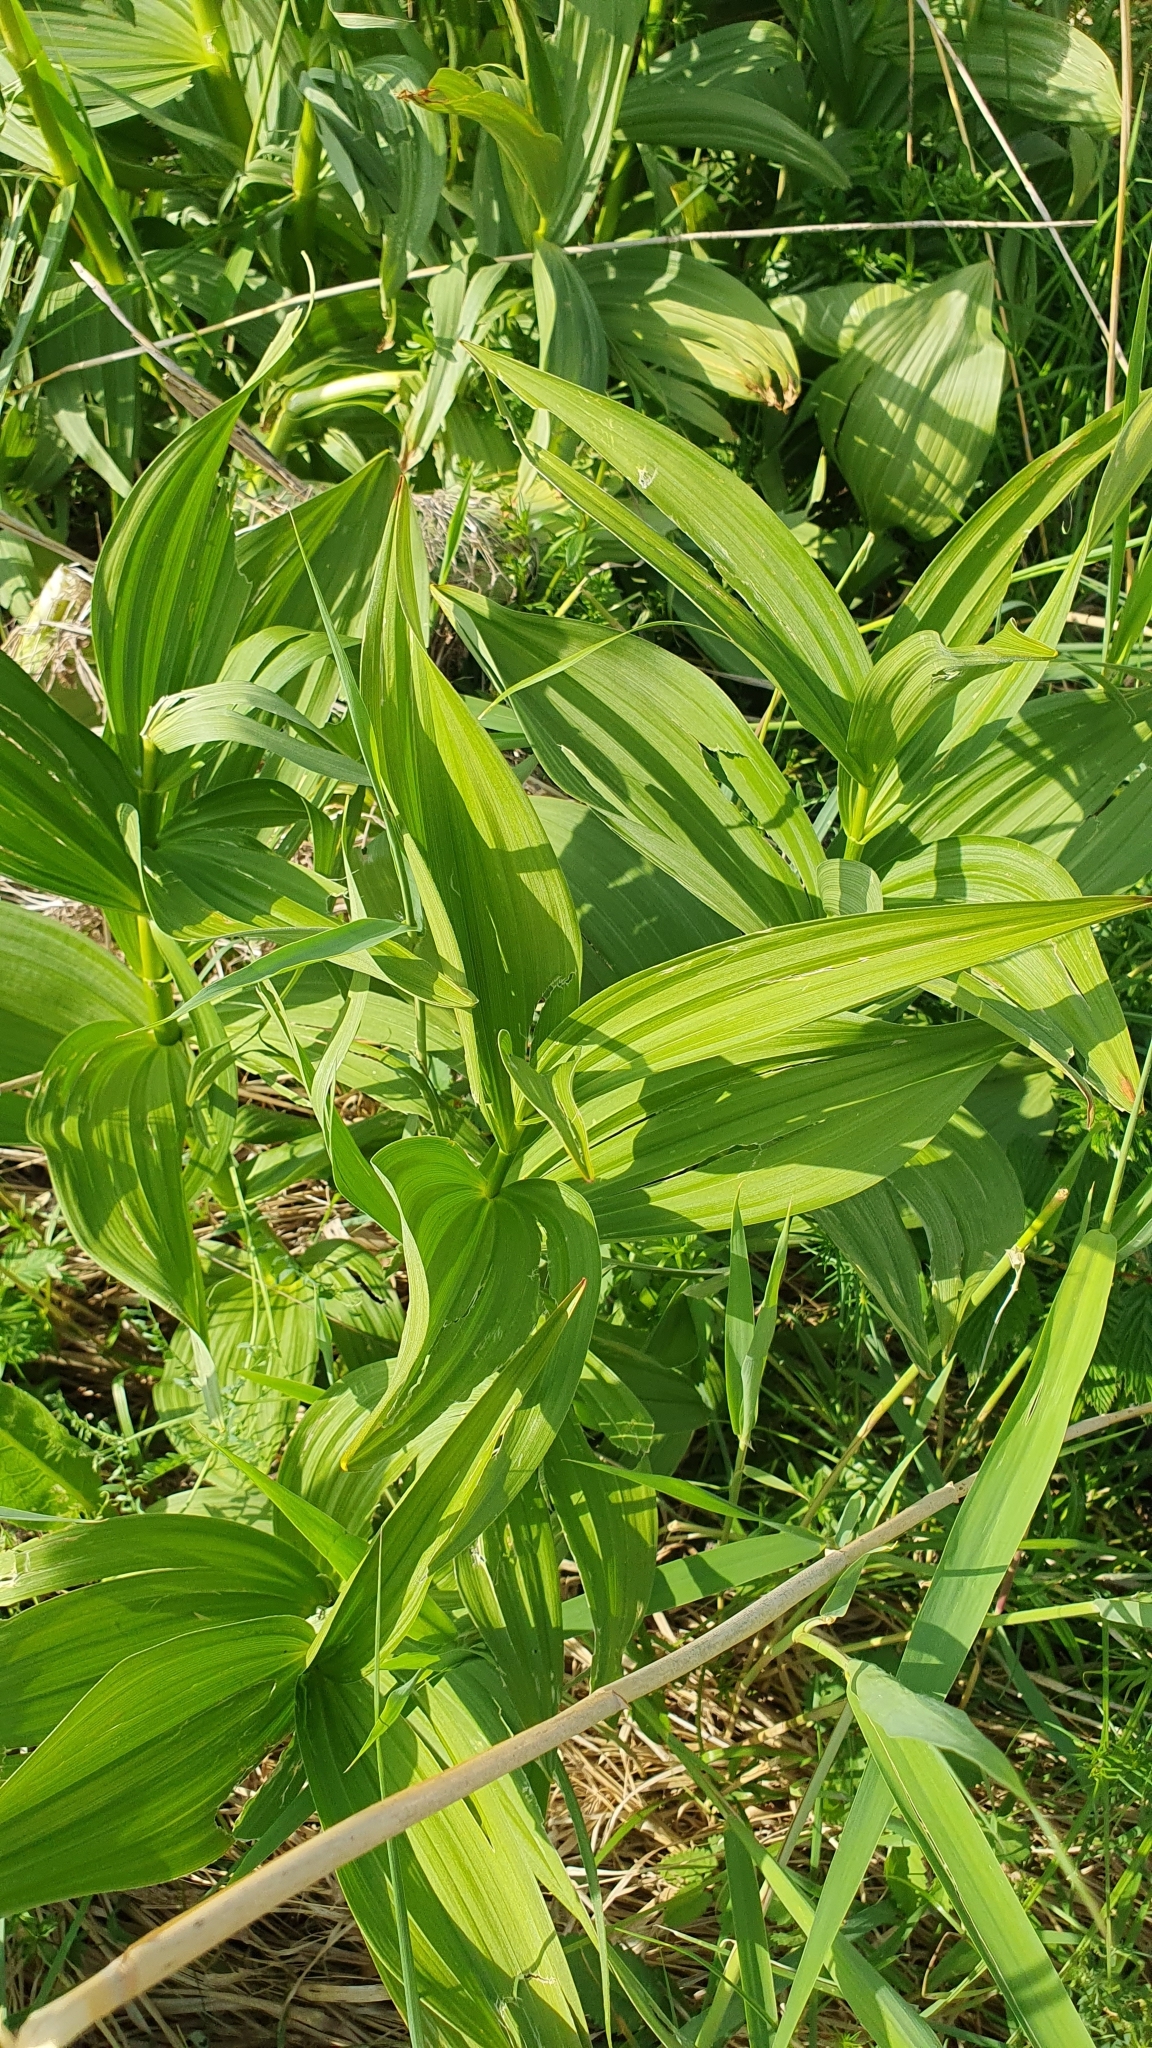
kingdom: Plantae
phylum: Tracheophyta
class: Liliopsida
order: Liliales
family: Melanthiaceae
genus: Veratrum
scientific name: Veratrum lobelianum
